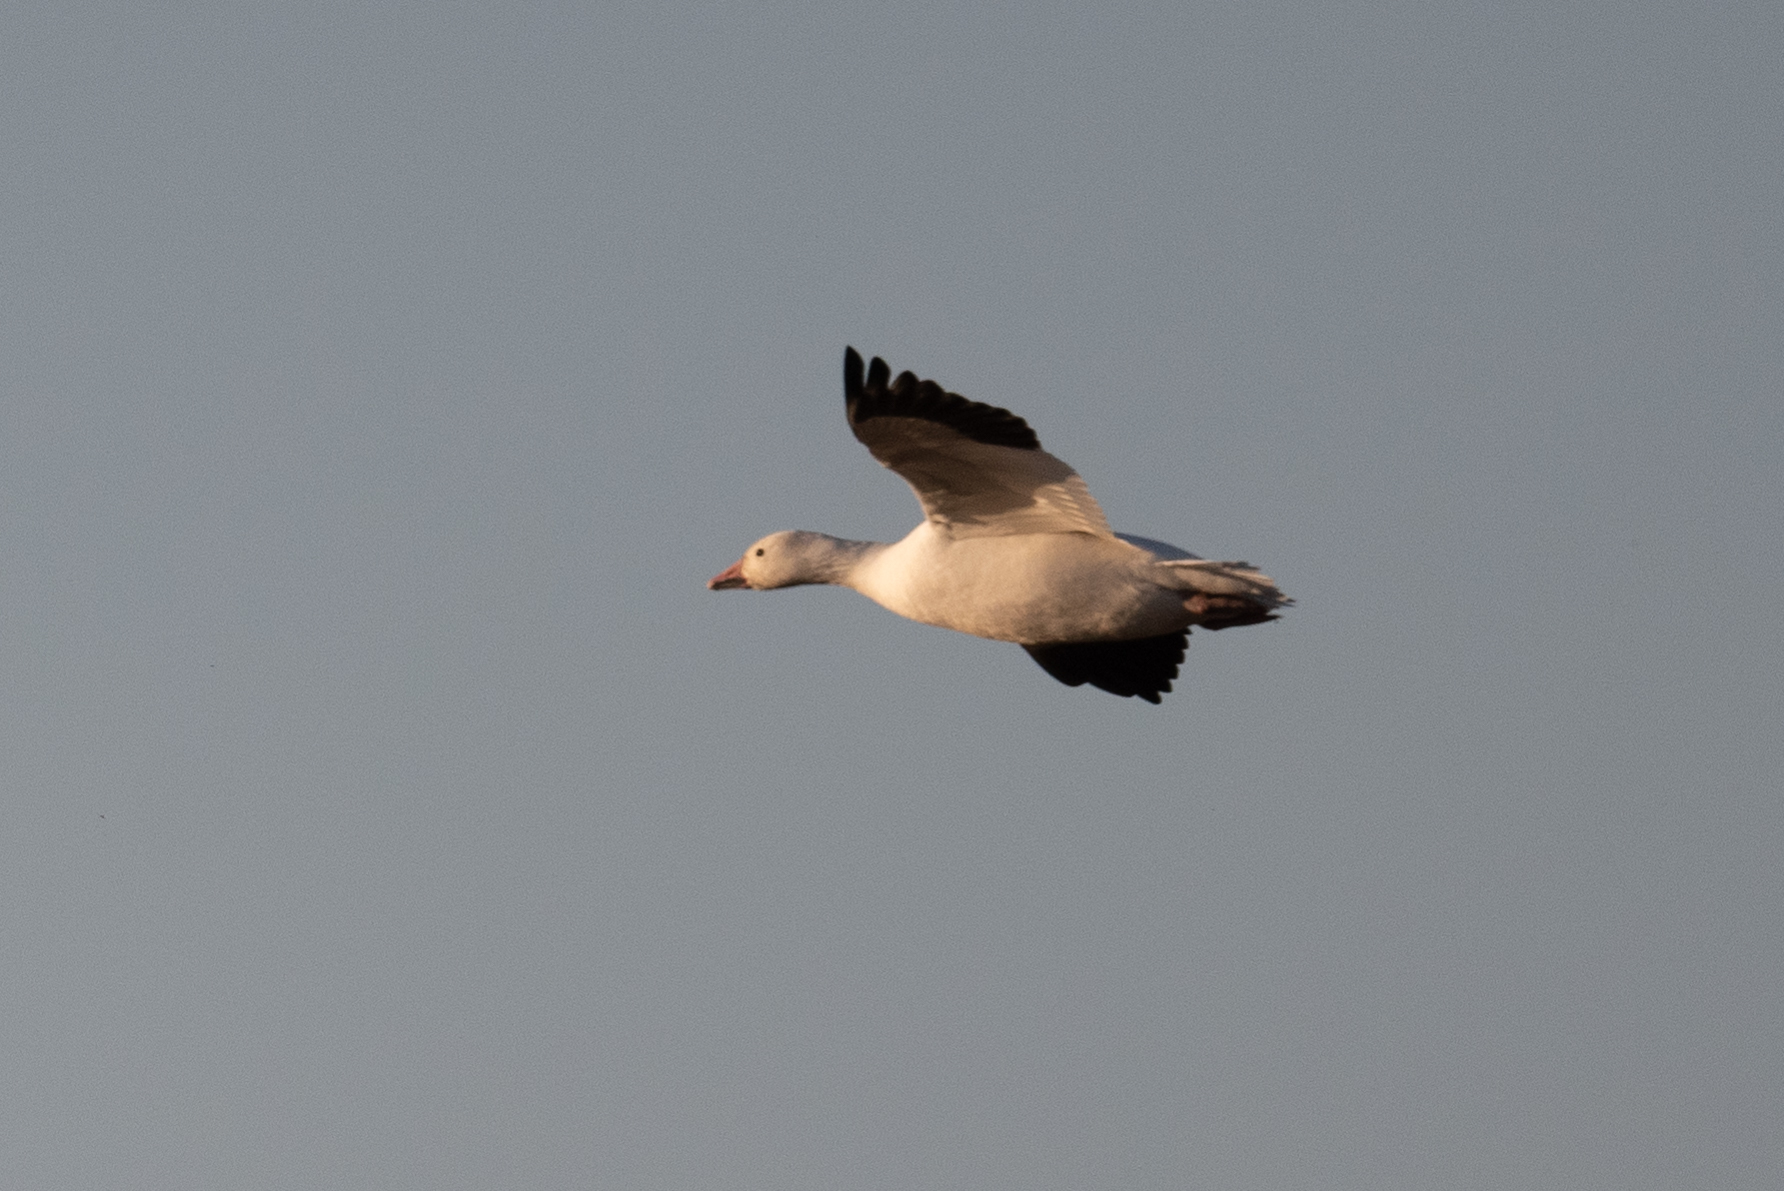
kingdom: Animalia
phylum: Chordata
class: Aves
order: Anseriformes
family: Anatidae
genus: Anser
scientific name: Anser caerulescens
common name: Snow goose
